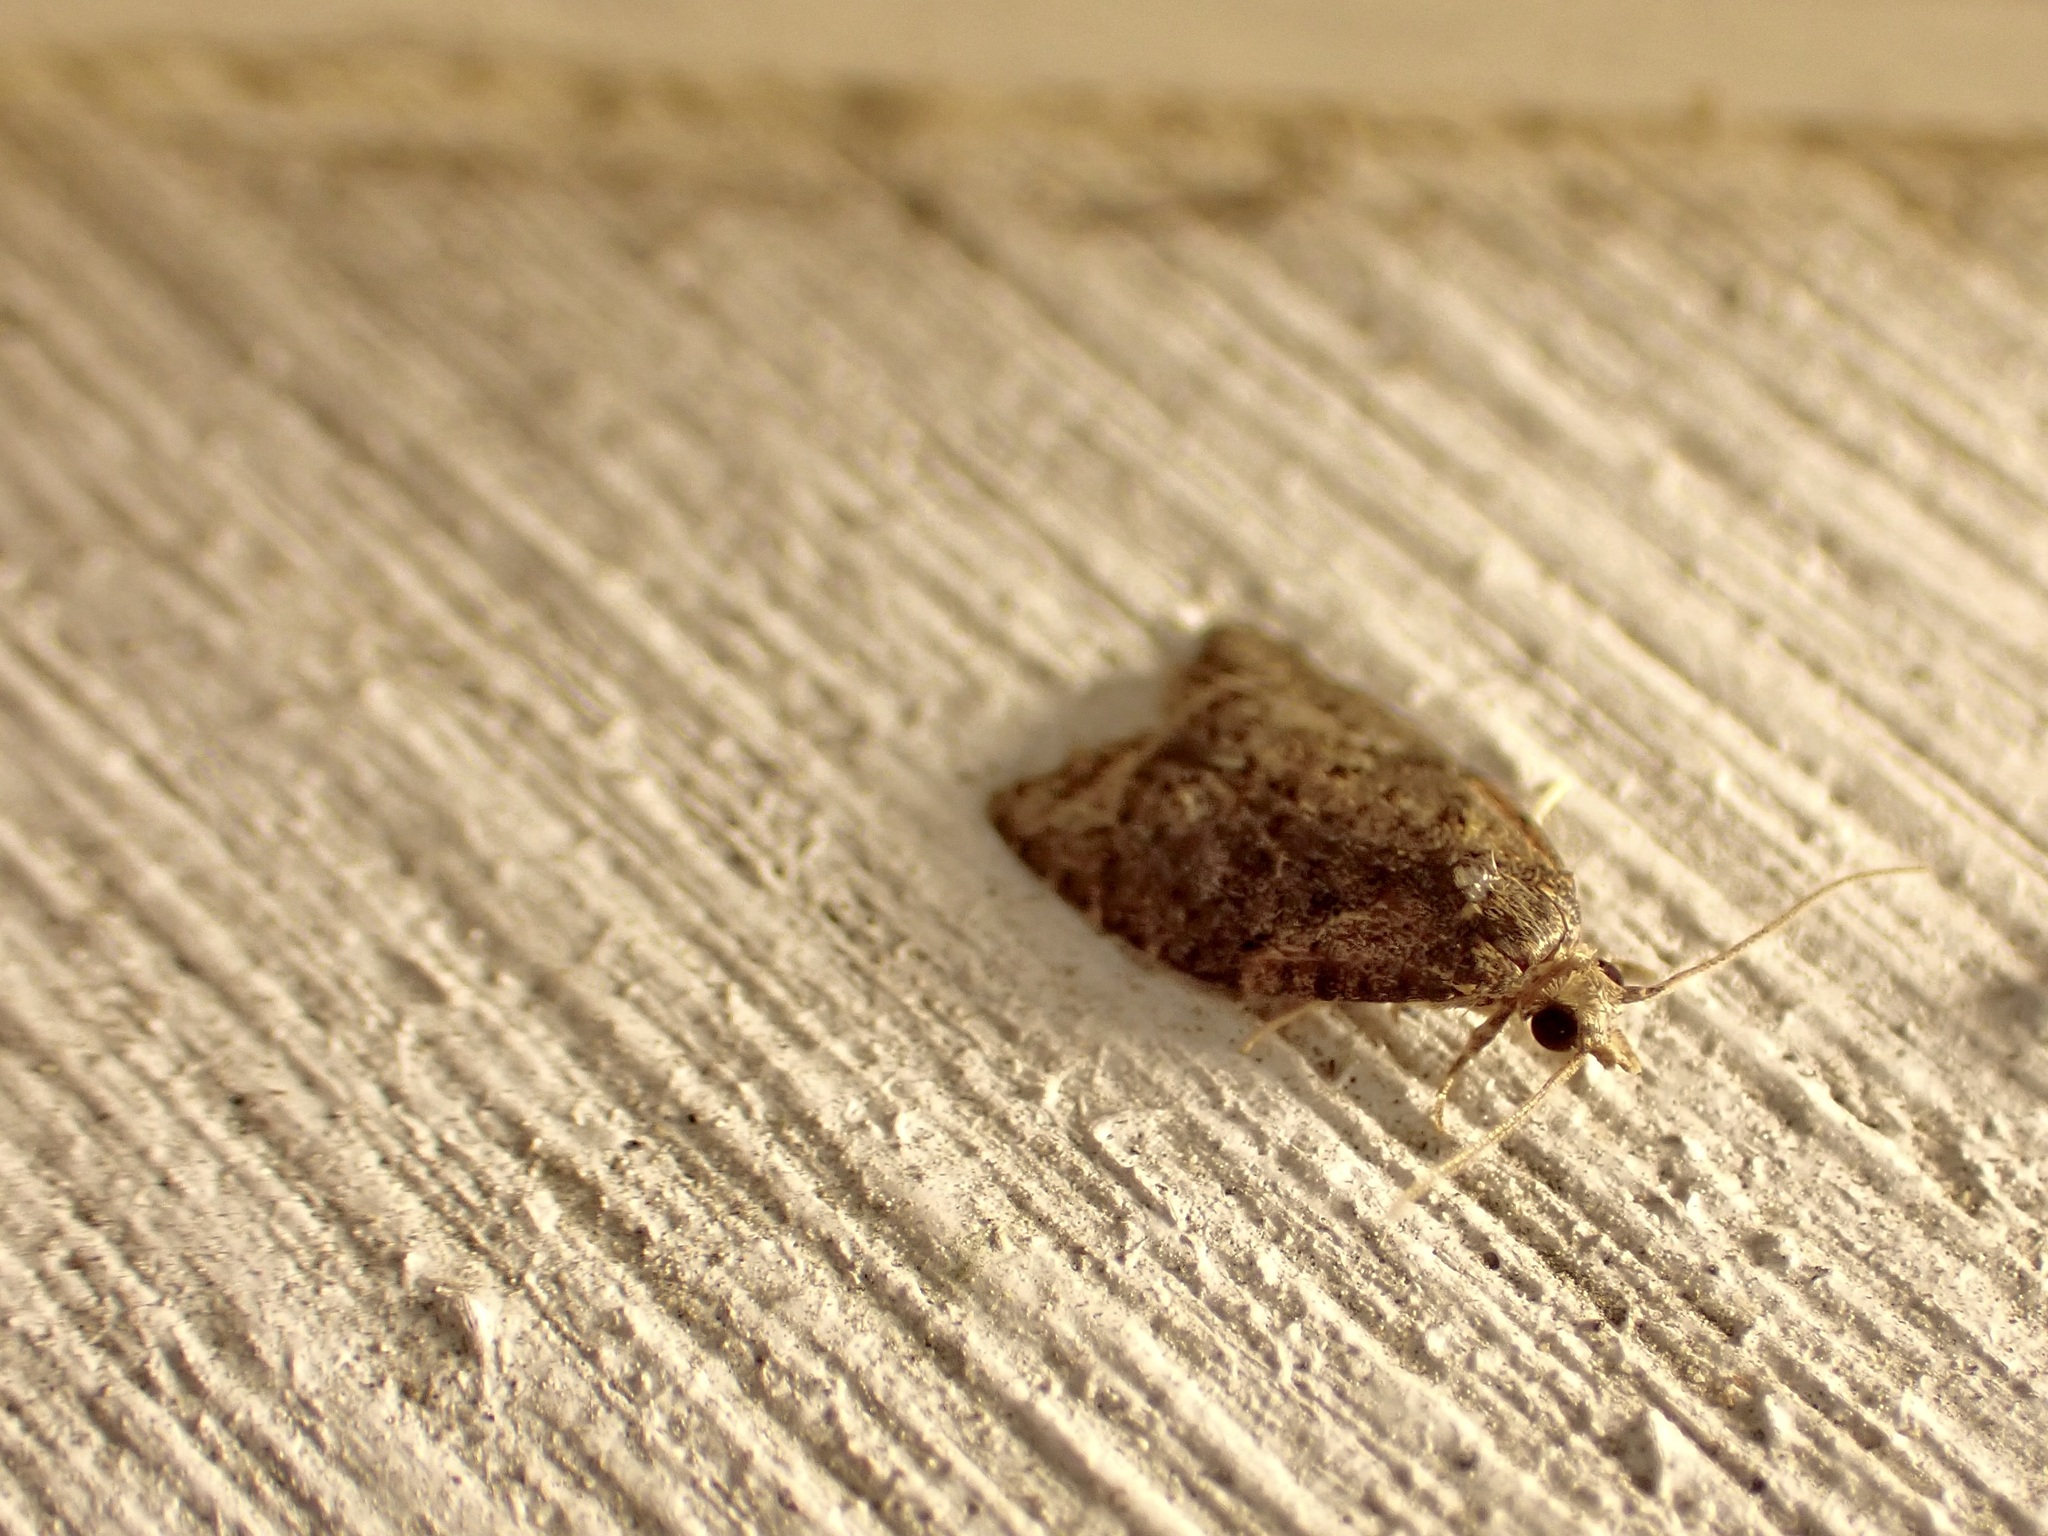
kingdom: Animalia
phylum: Arthropoda
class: Insecta
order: Lepidoptera
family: Tortricidae
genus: Capua
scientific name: Capua intractana
